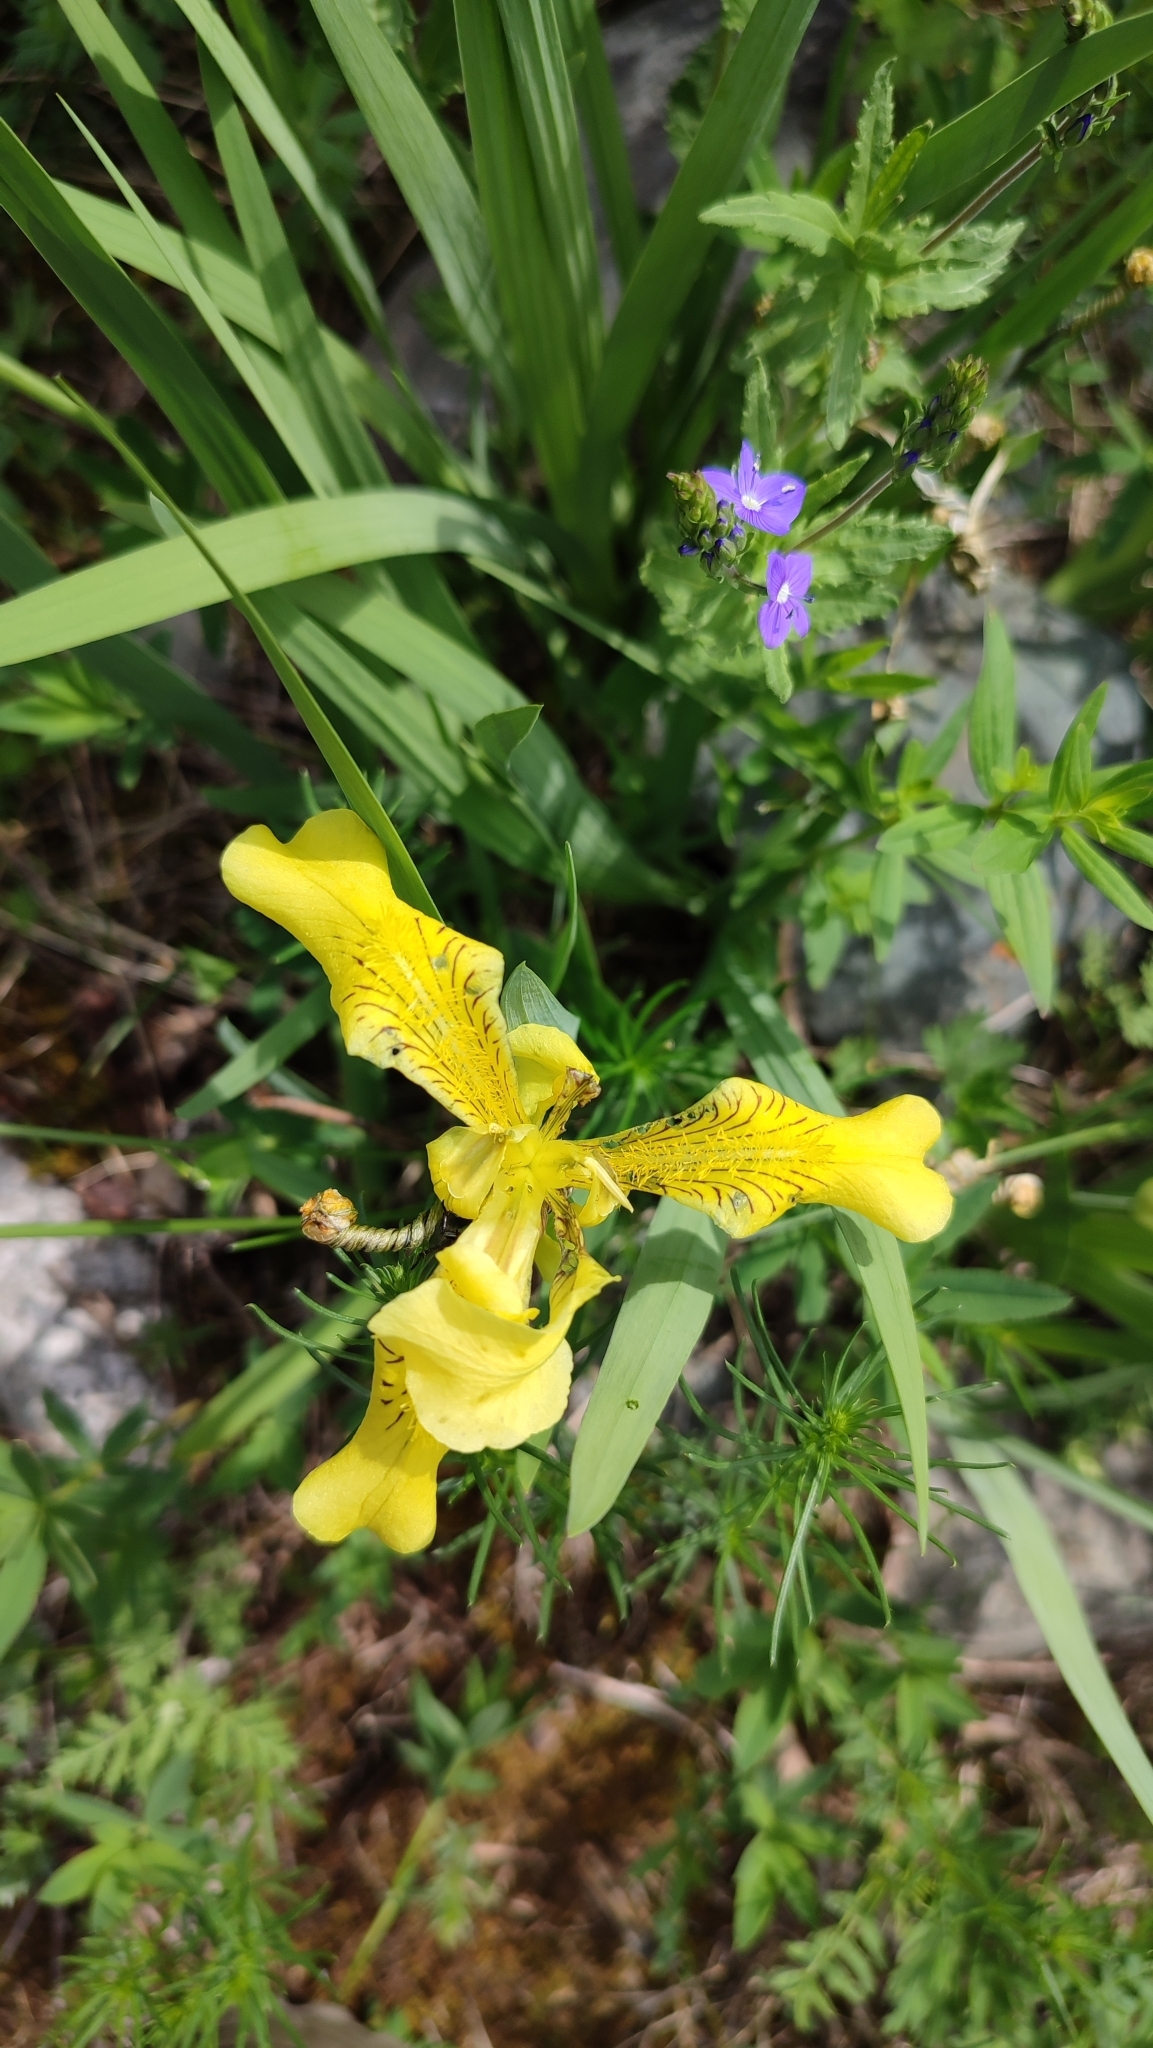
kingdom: Plantae
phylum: Tracheophyta
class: Liliopsida
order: Asparagales
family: Iridaceae
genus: Iris
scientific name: Iris bloudowii
